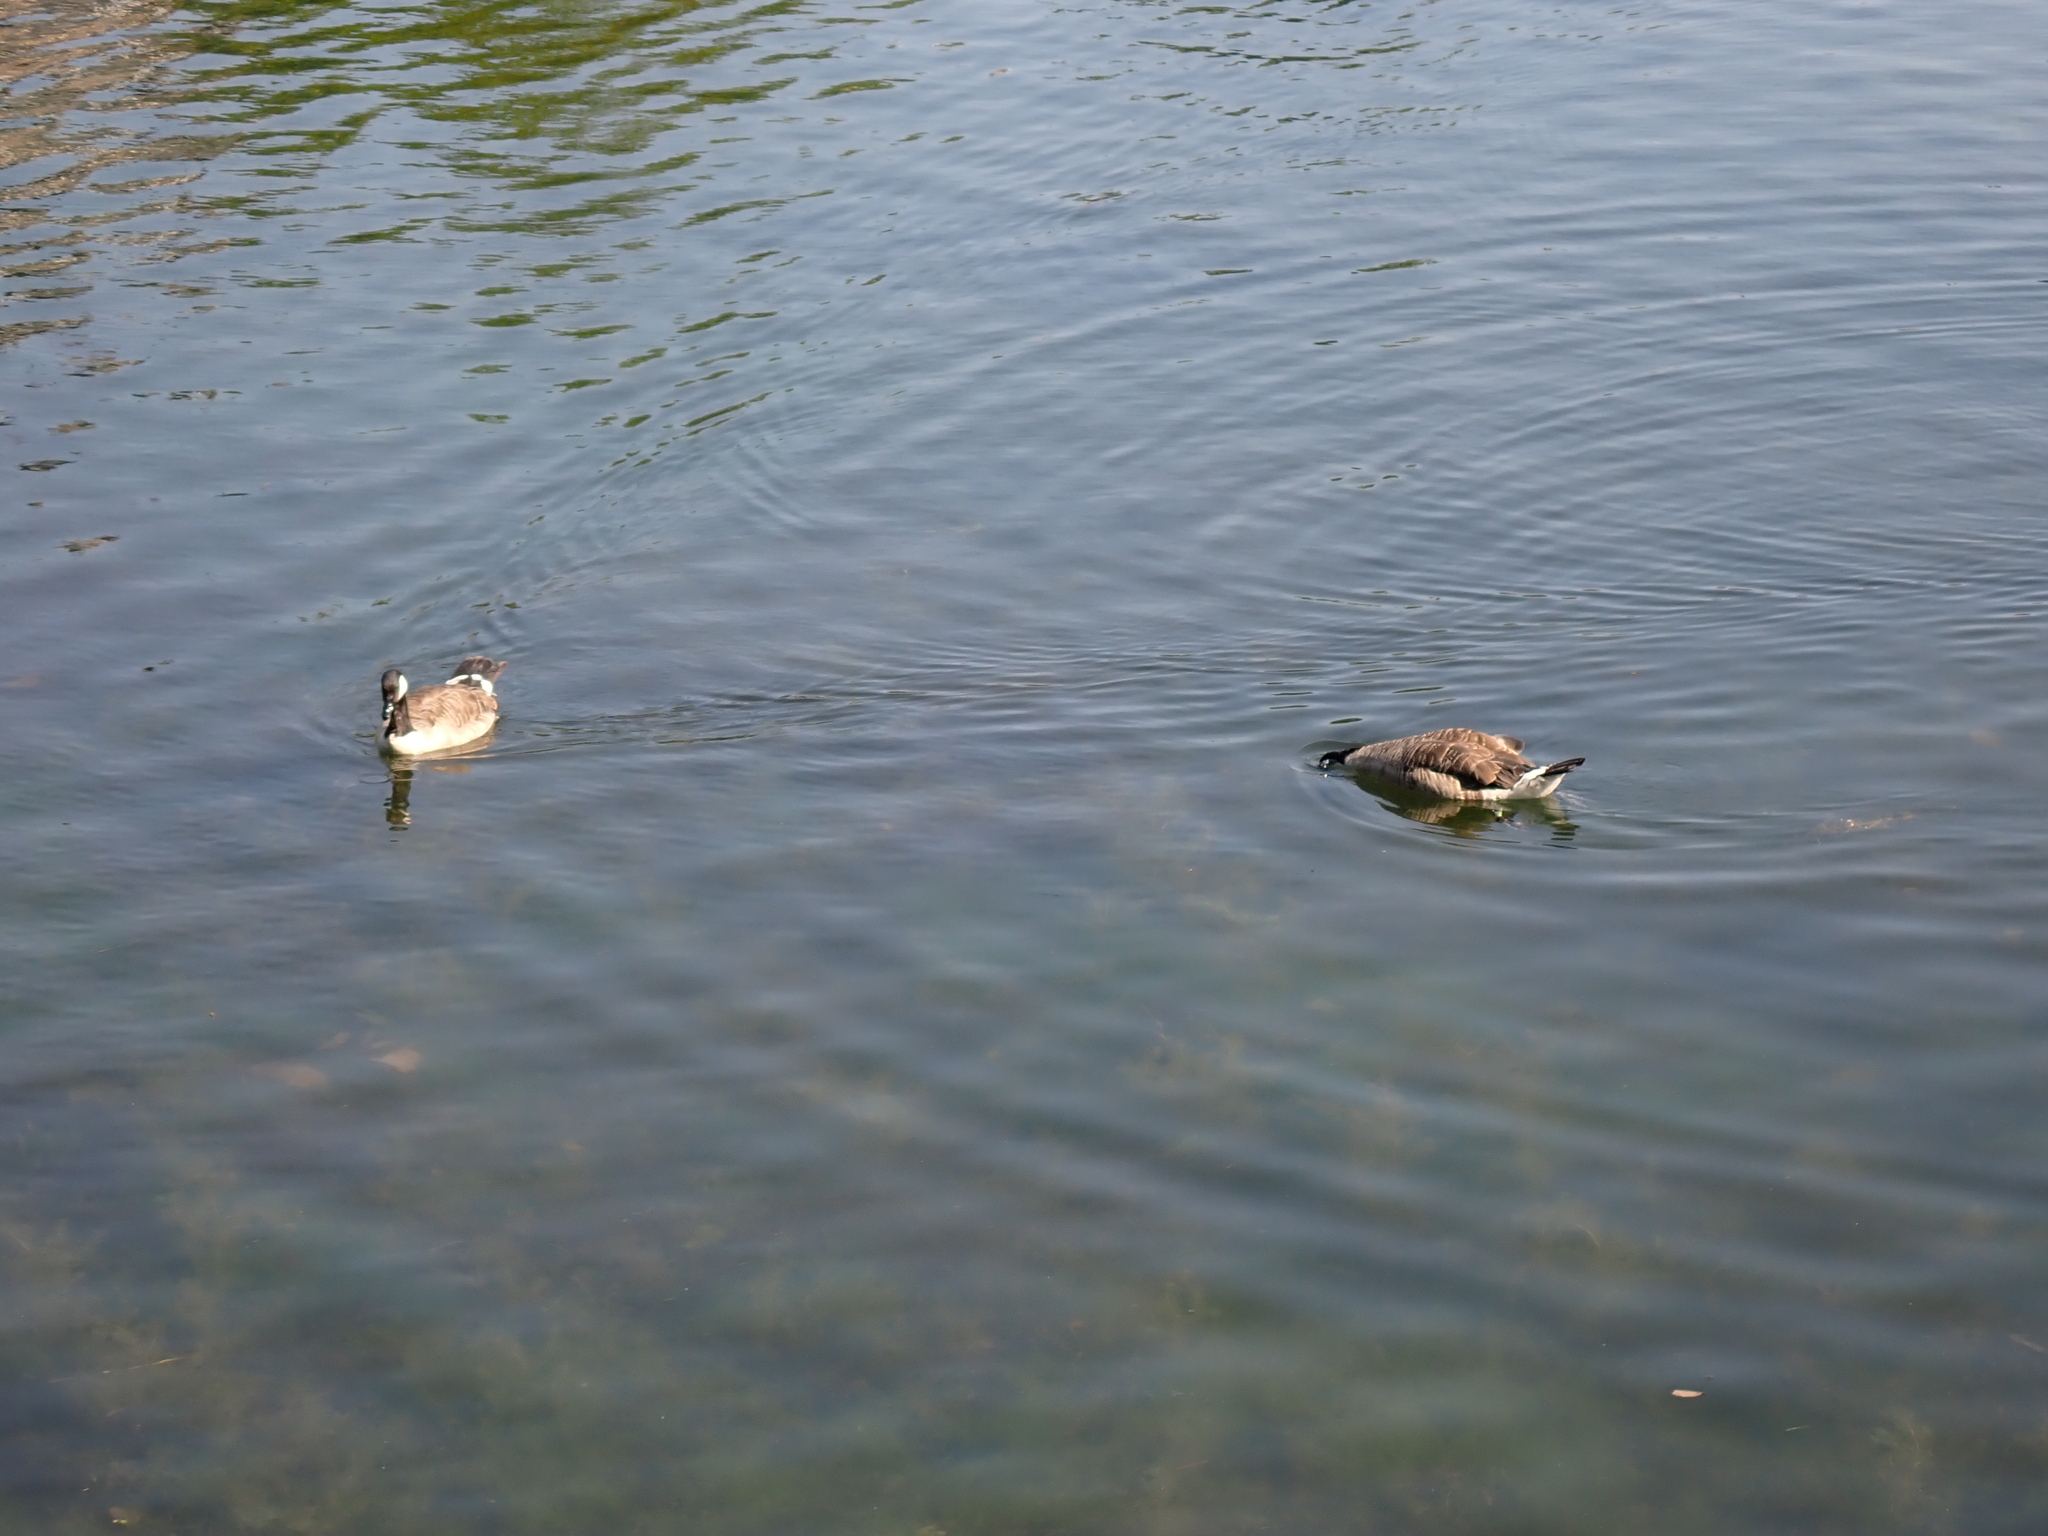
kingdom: Animalia
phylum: Chordata
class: Aves
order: Anseriformes
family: Anatidae
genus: Branta
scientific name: Branta canadensis
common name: Canada goose
